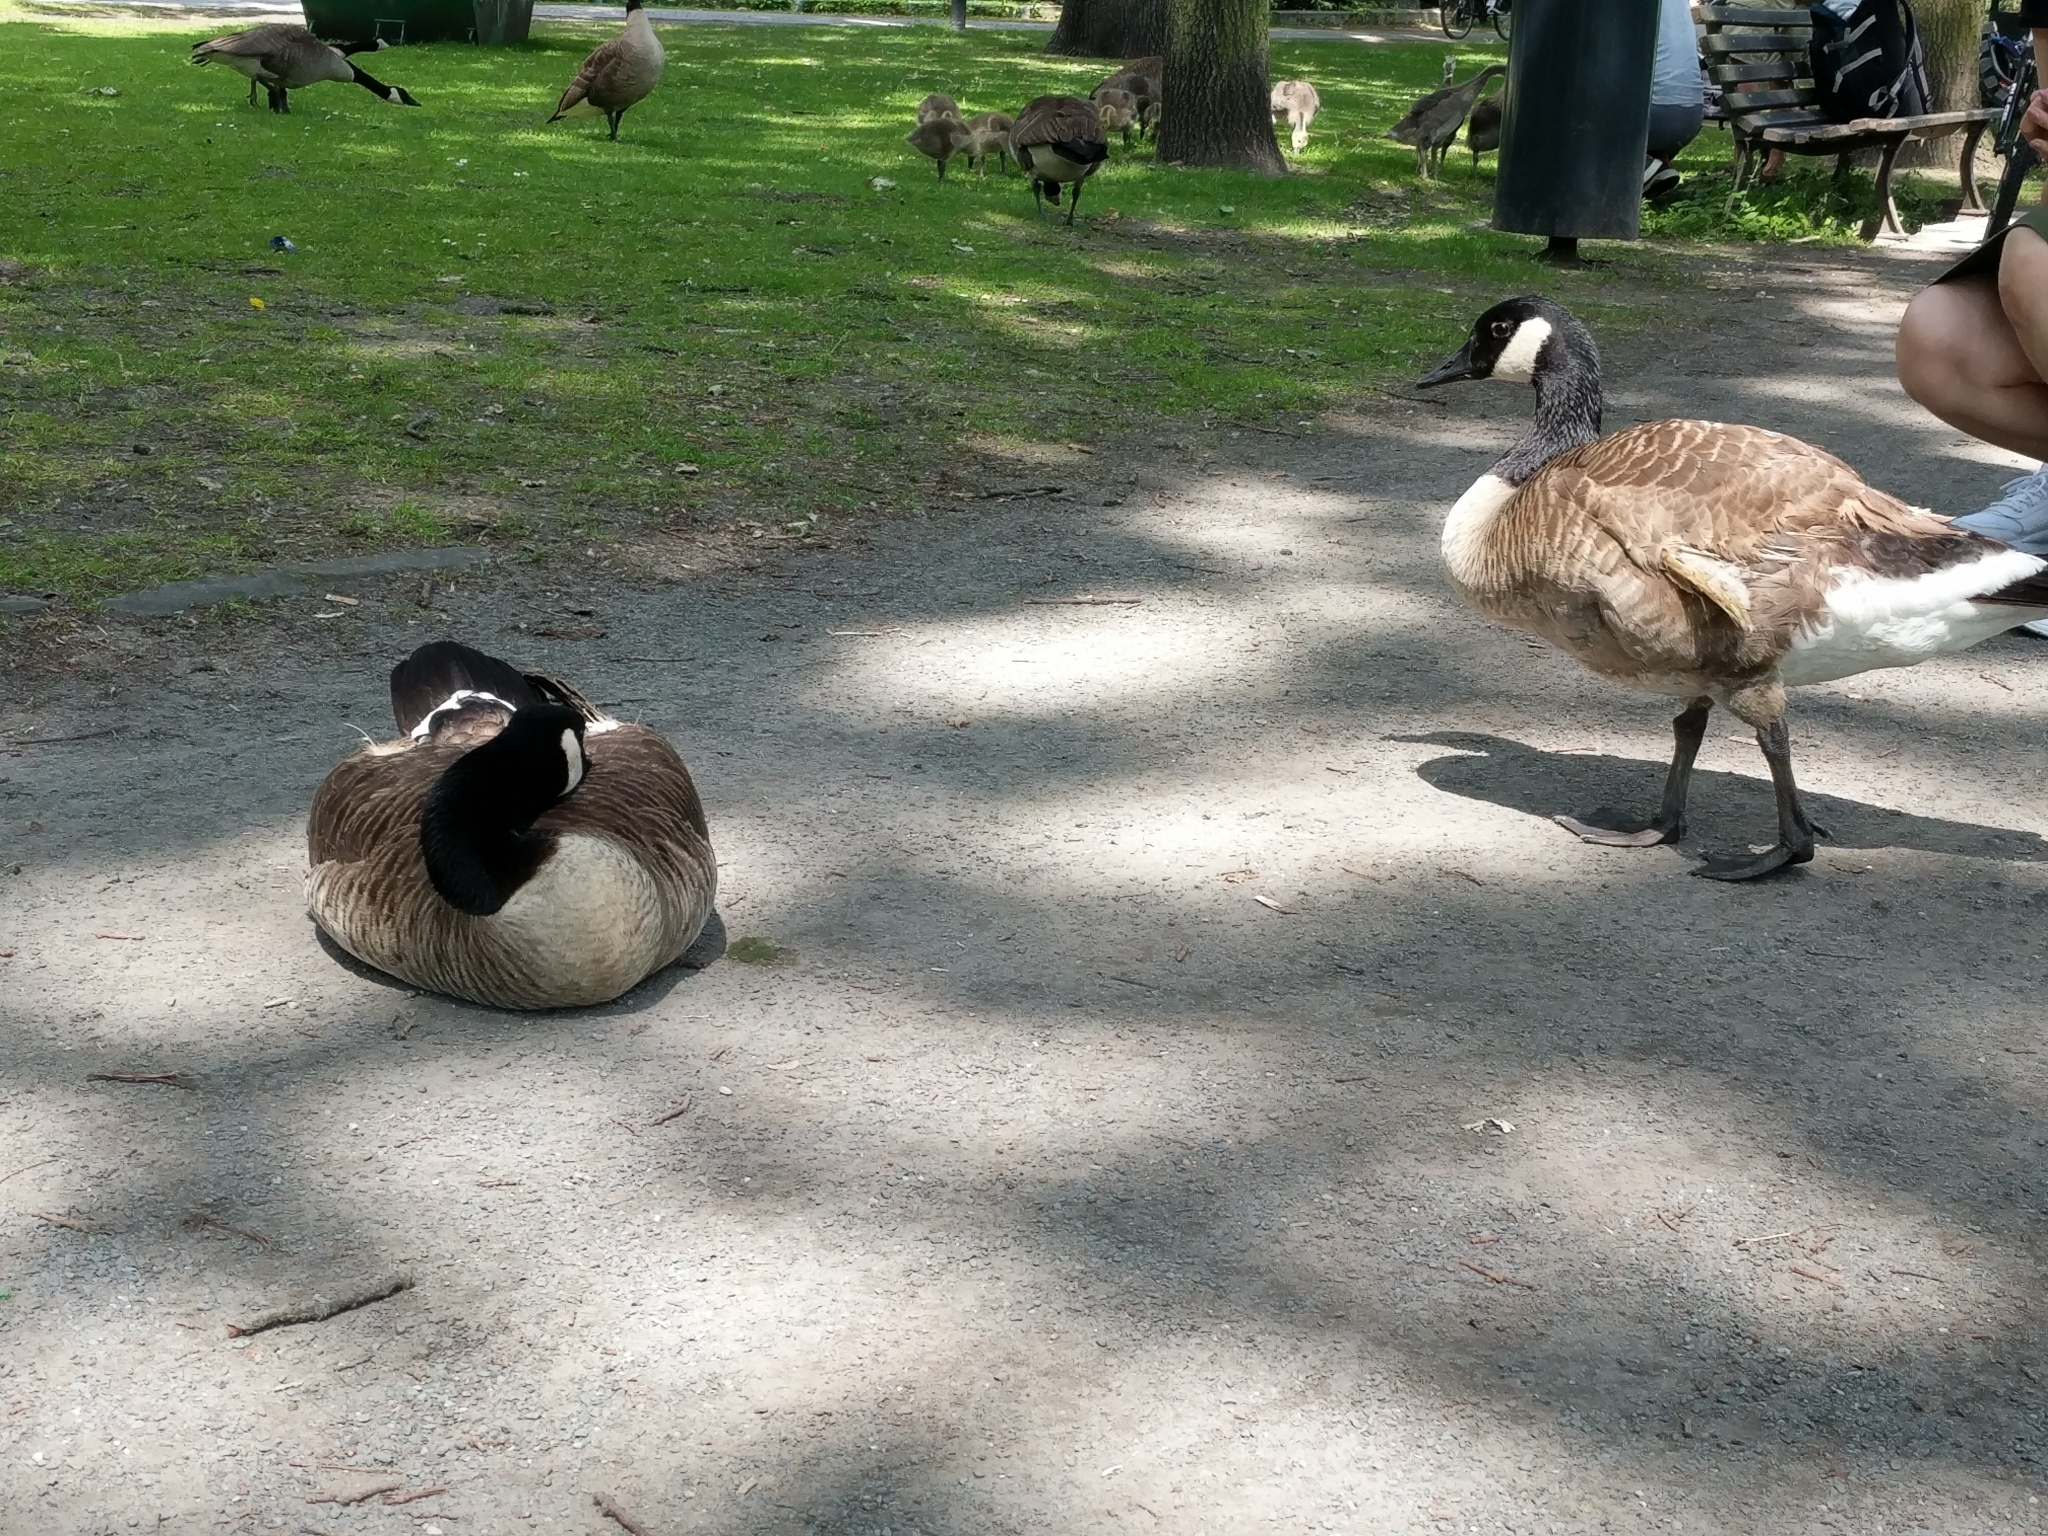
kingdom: Animalia
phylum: Chordata
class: Aves
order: Anseriformes
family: Anatidae
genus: Branta
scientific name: Branta canadensis
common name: Canada goose
